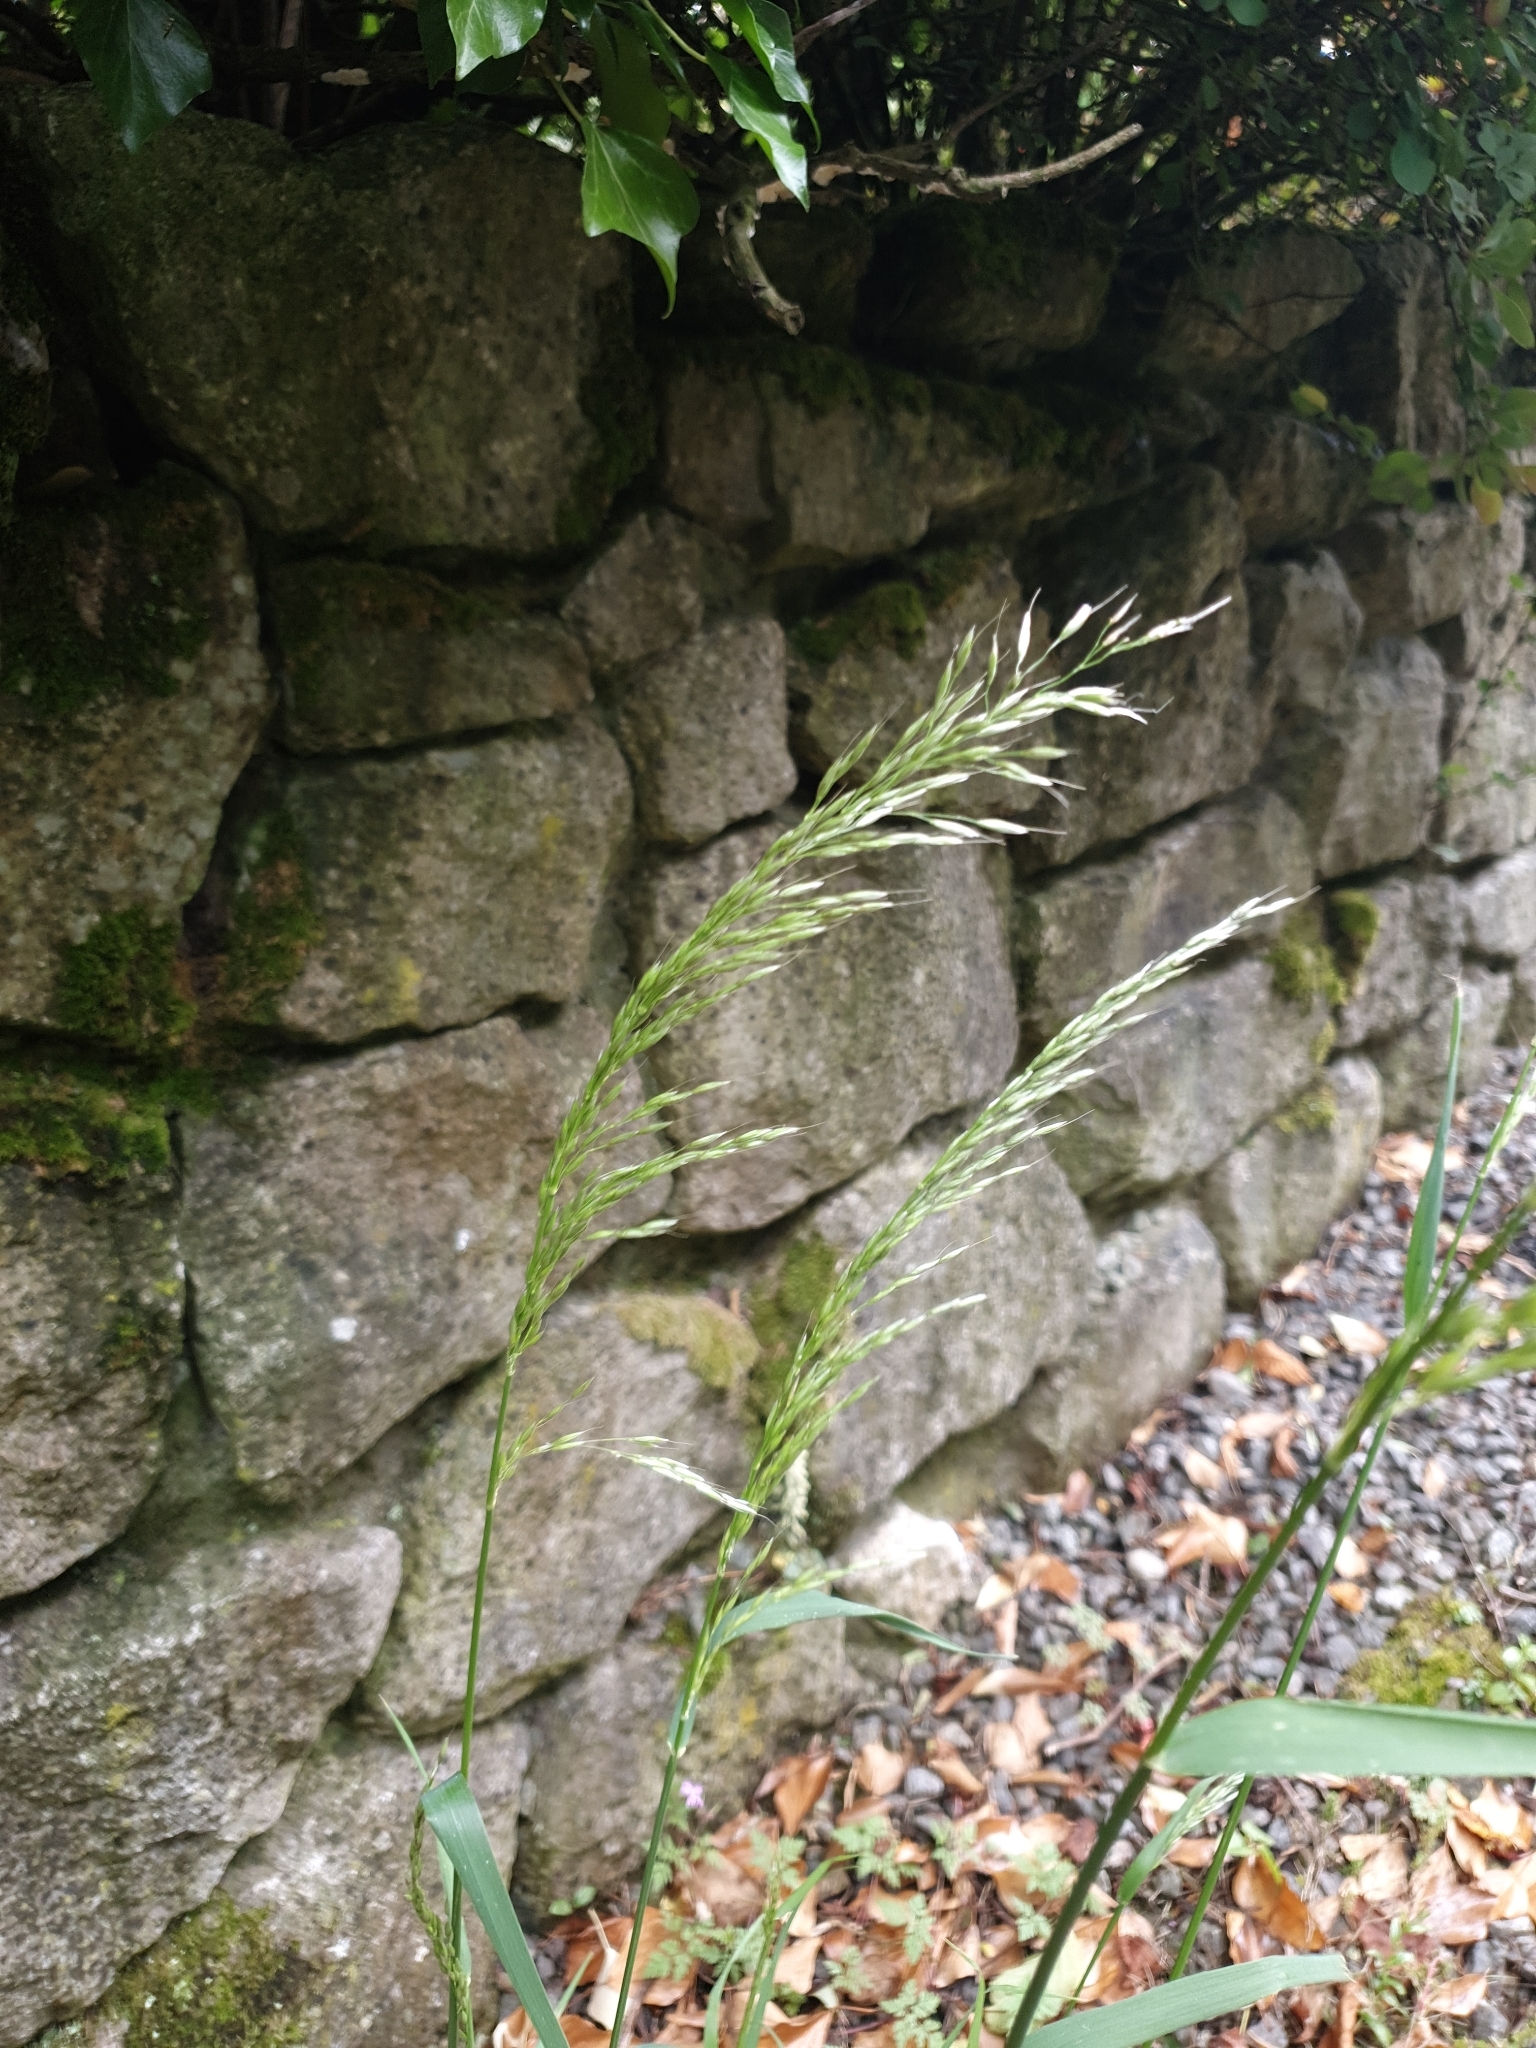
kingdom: Plantae
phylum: Tracheophyta
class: Liliopsida
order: Poales
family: Poaceae
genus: Arrhenatherum
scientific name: Arrhenatherum elatius
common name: Tall oatgrass
